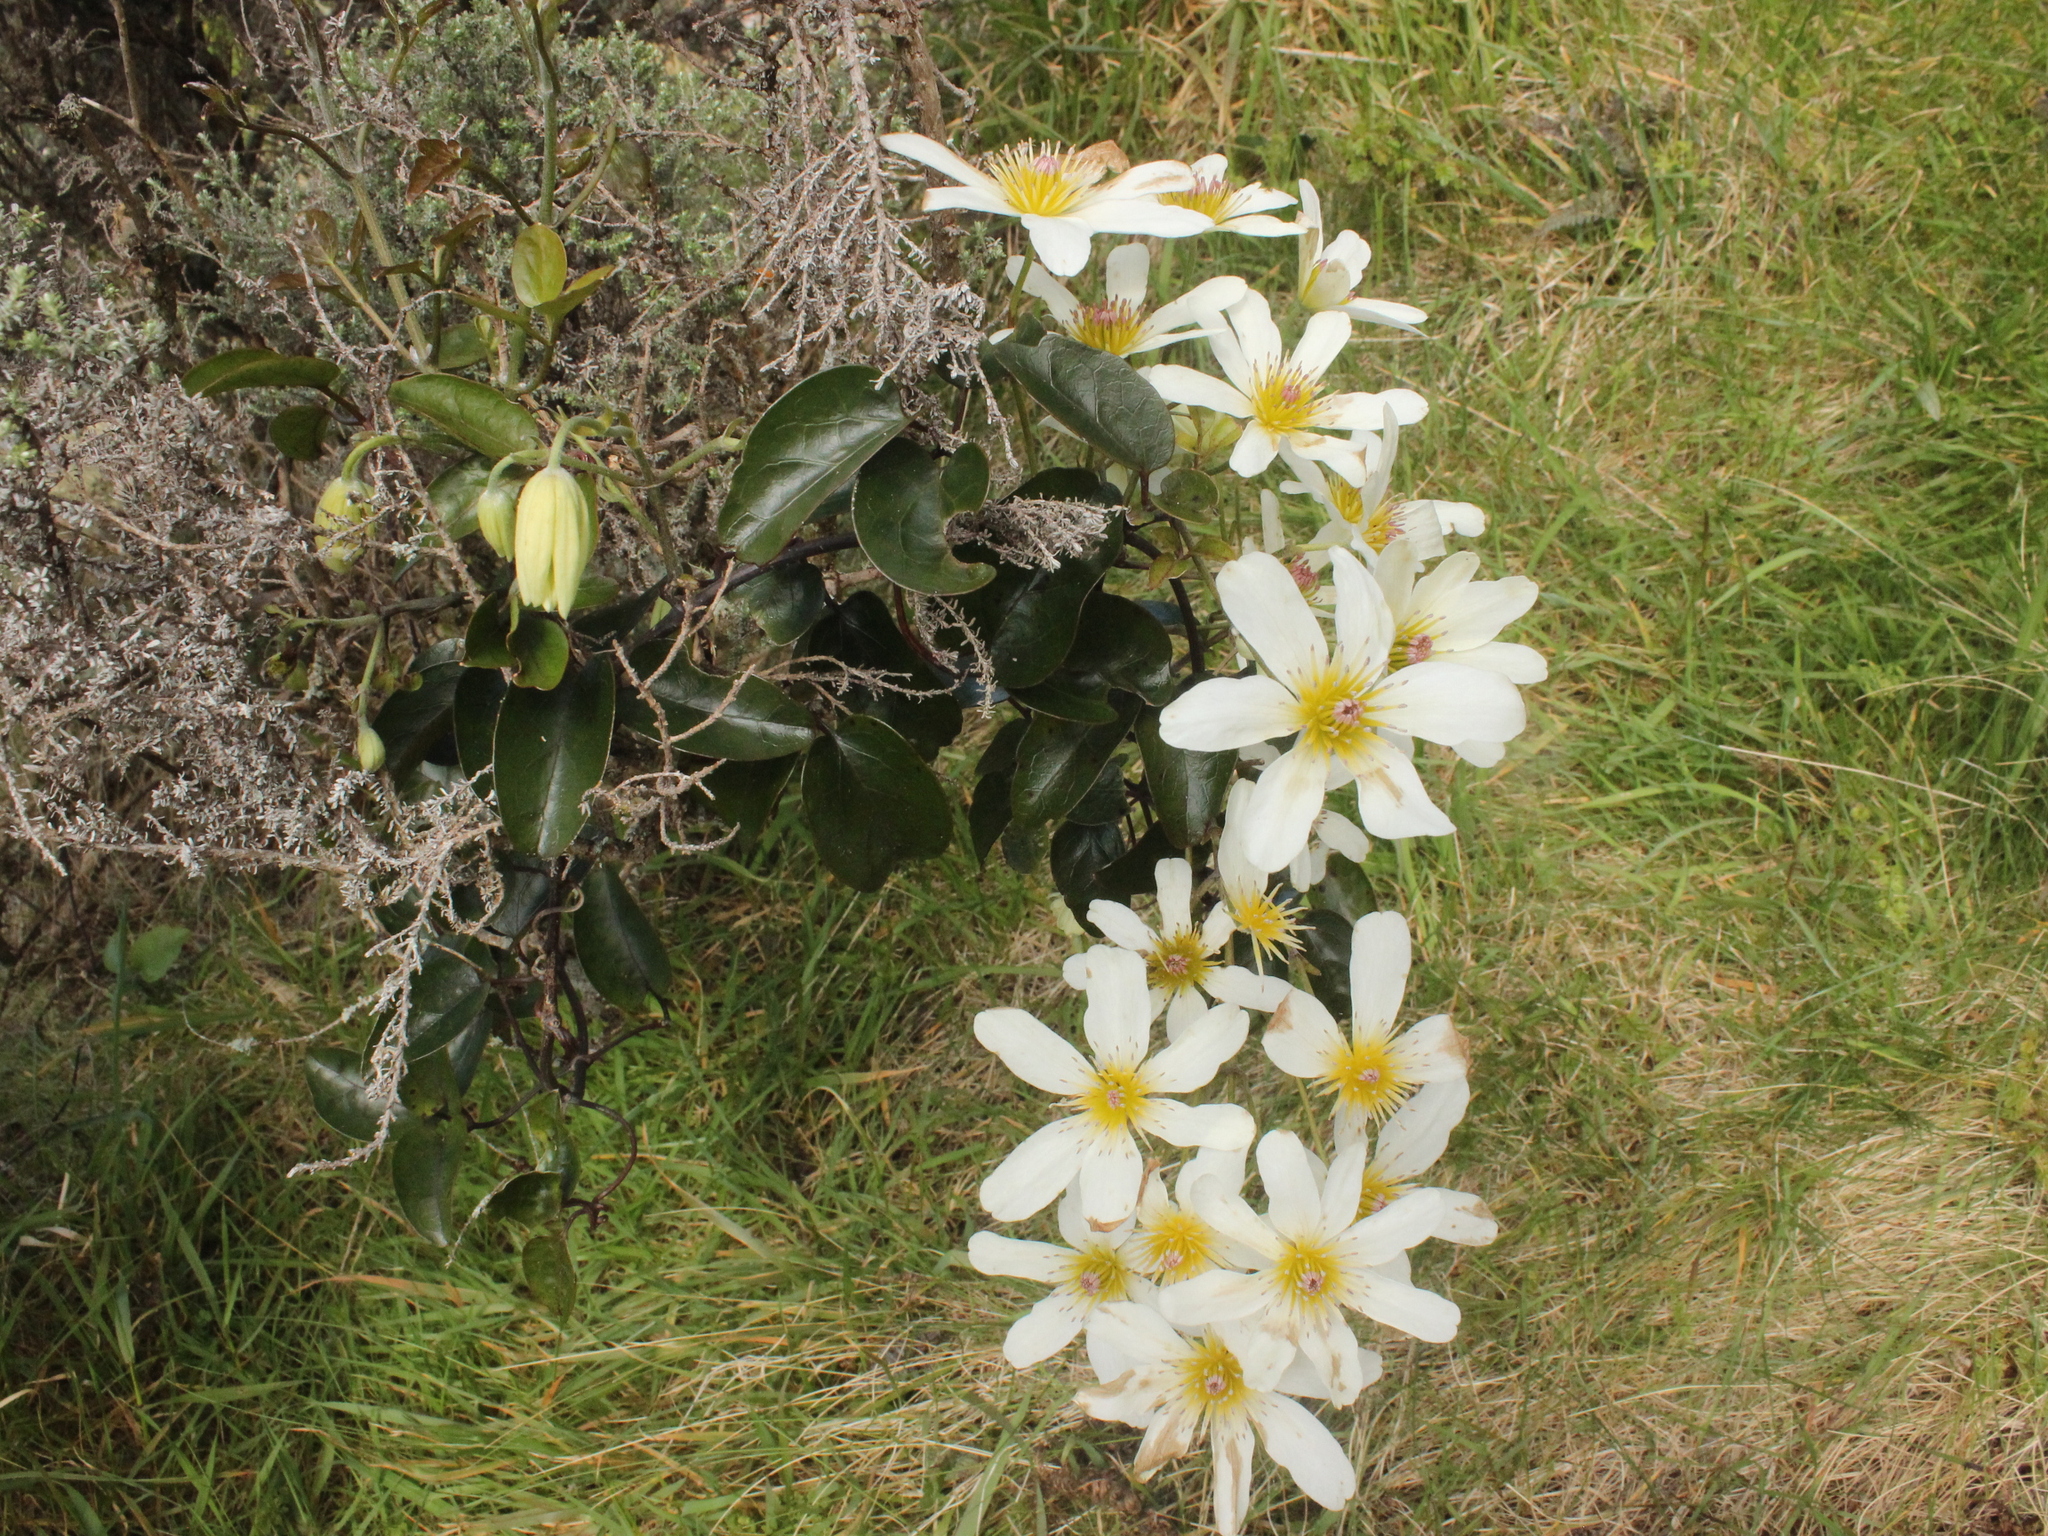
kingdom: Plantae
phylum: Tracheophyta
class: Magnoliopsida
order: Ranunculales
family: Ranunculaceae
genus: Clematis
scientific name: Clematis paniculata
